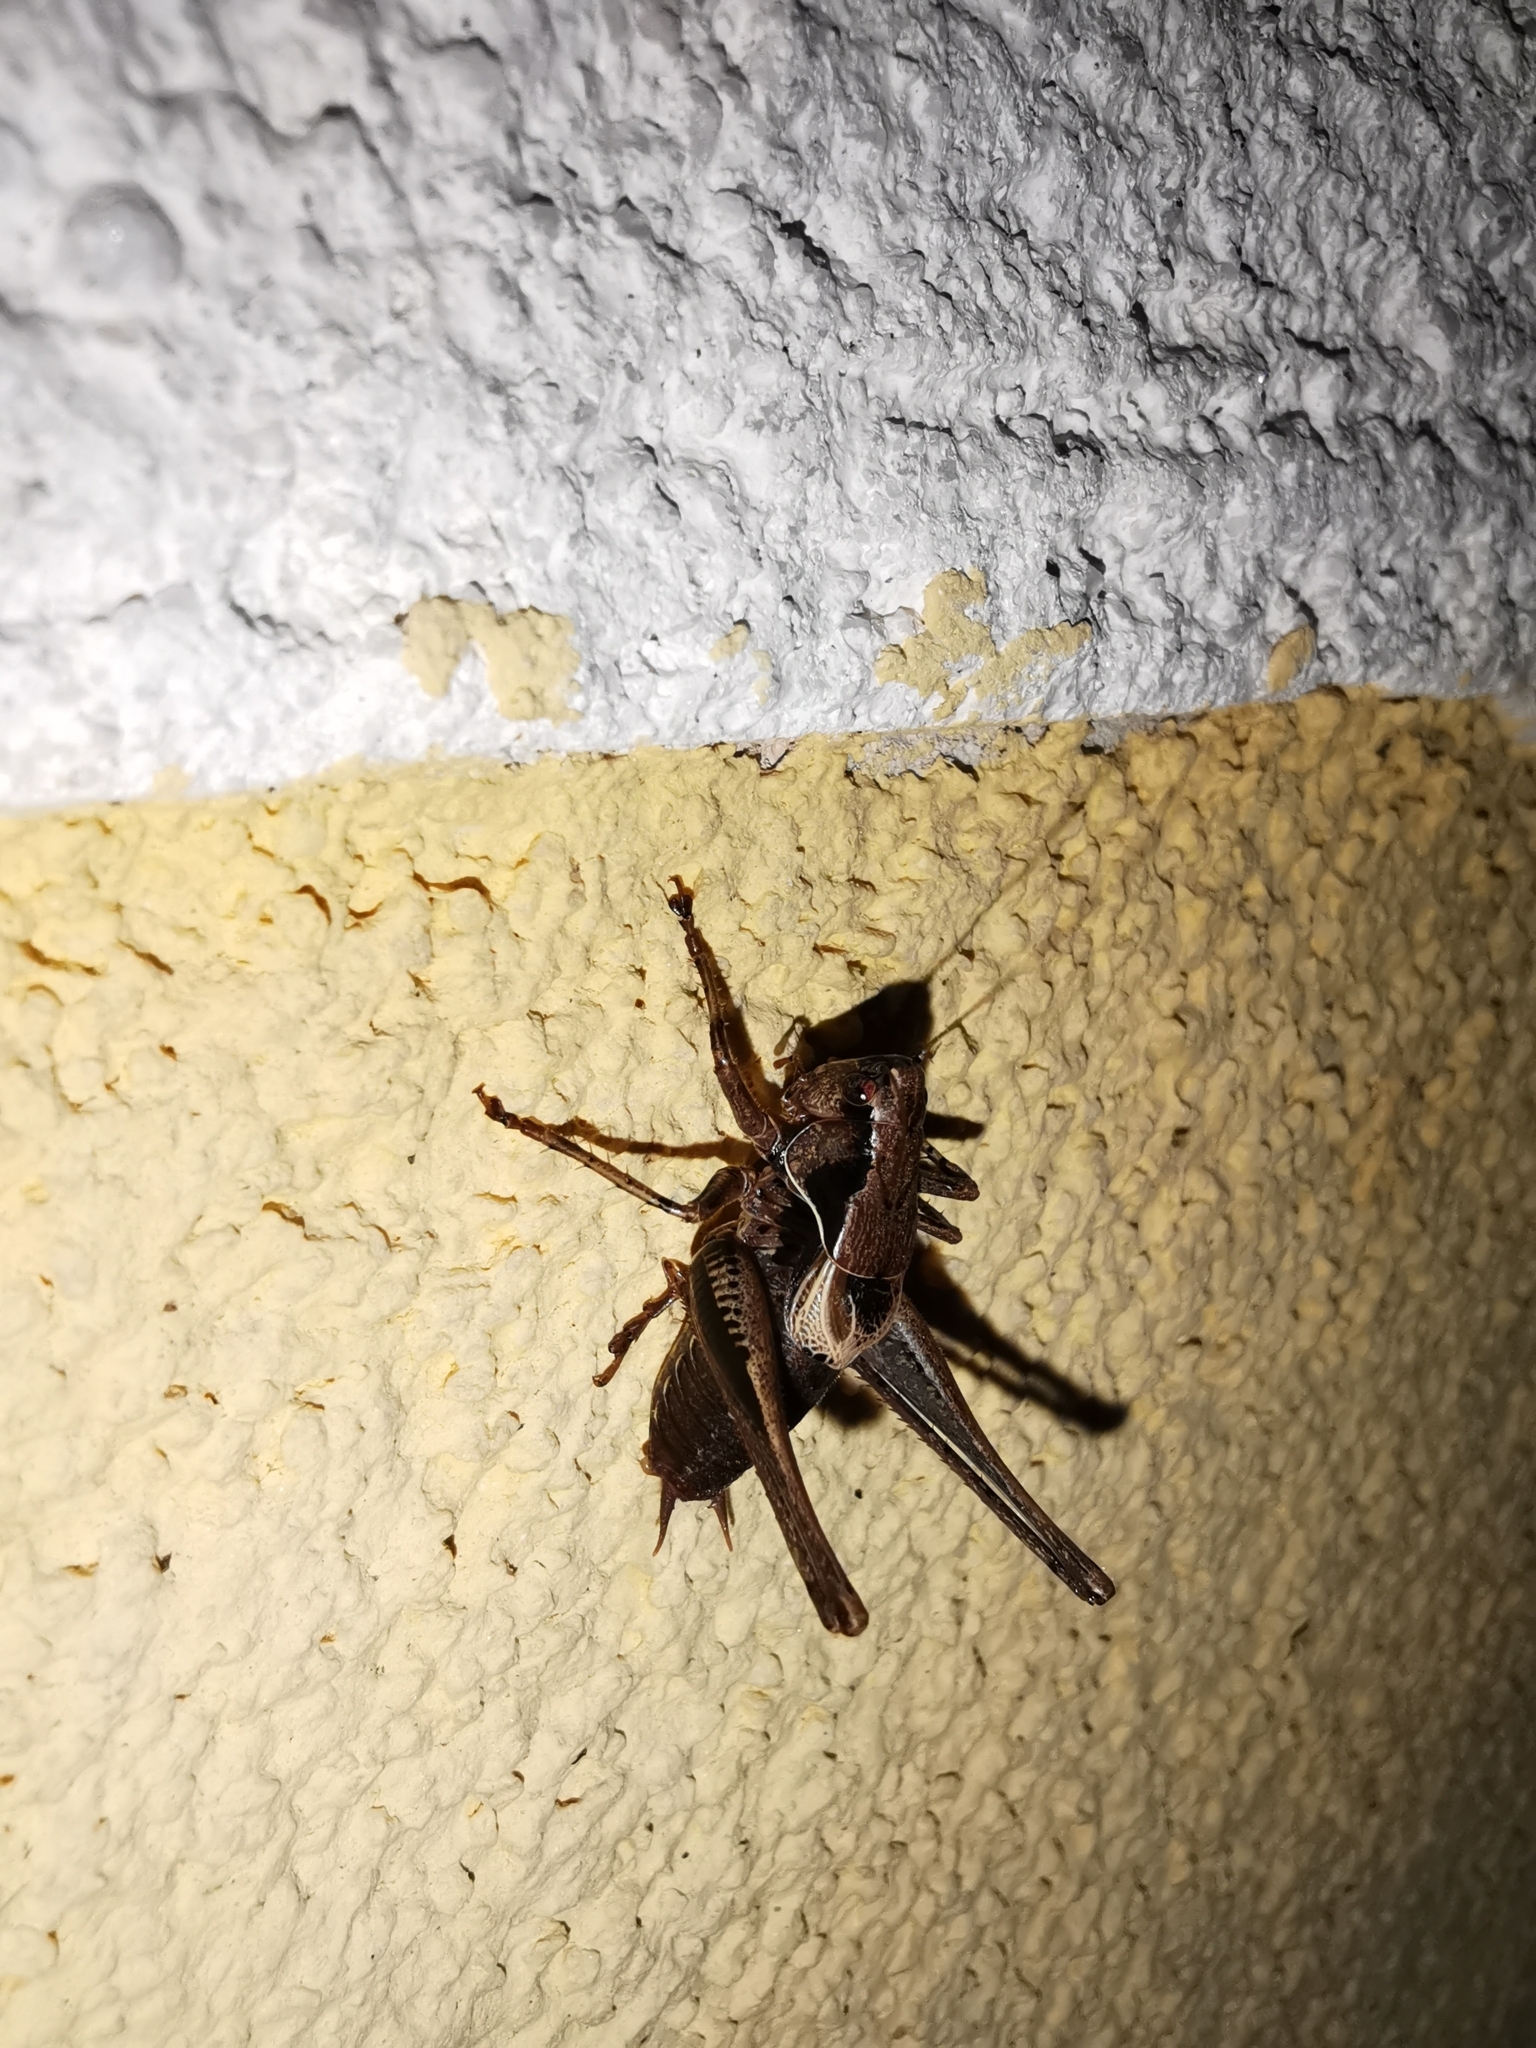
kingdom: Animalia
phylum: Arthropoda
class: Insecta
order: Orthoptera
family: Tettigoniidae
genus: Pholidoptera
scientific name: Pholidoptera griseoaptera
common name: Dark bush-cricket
